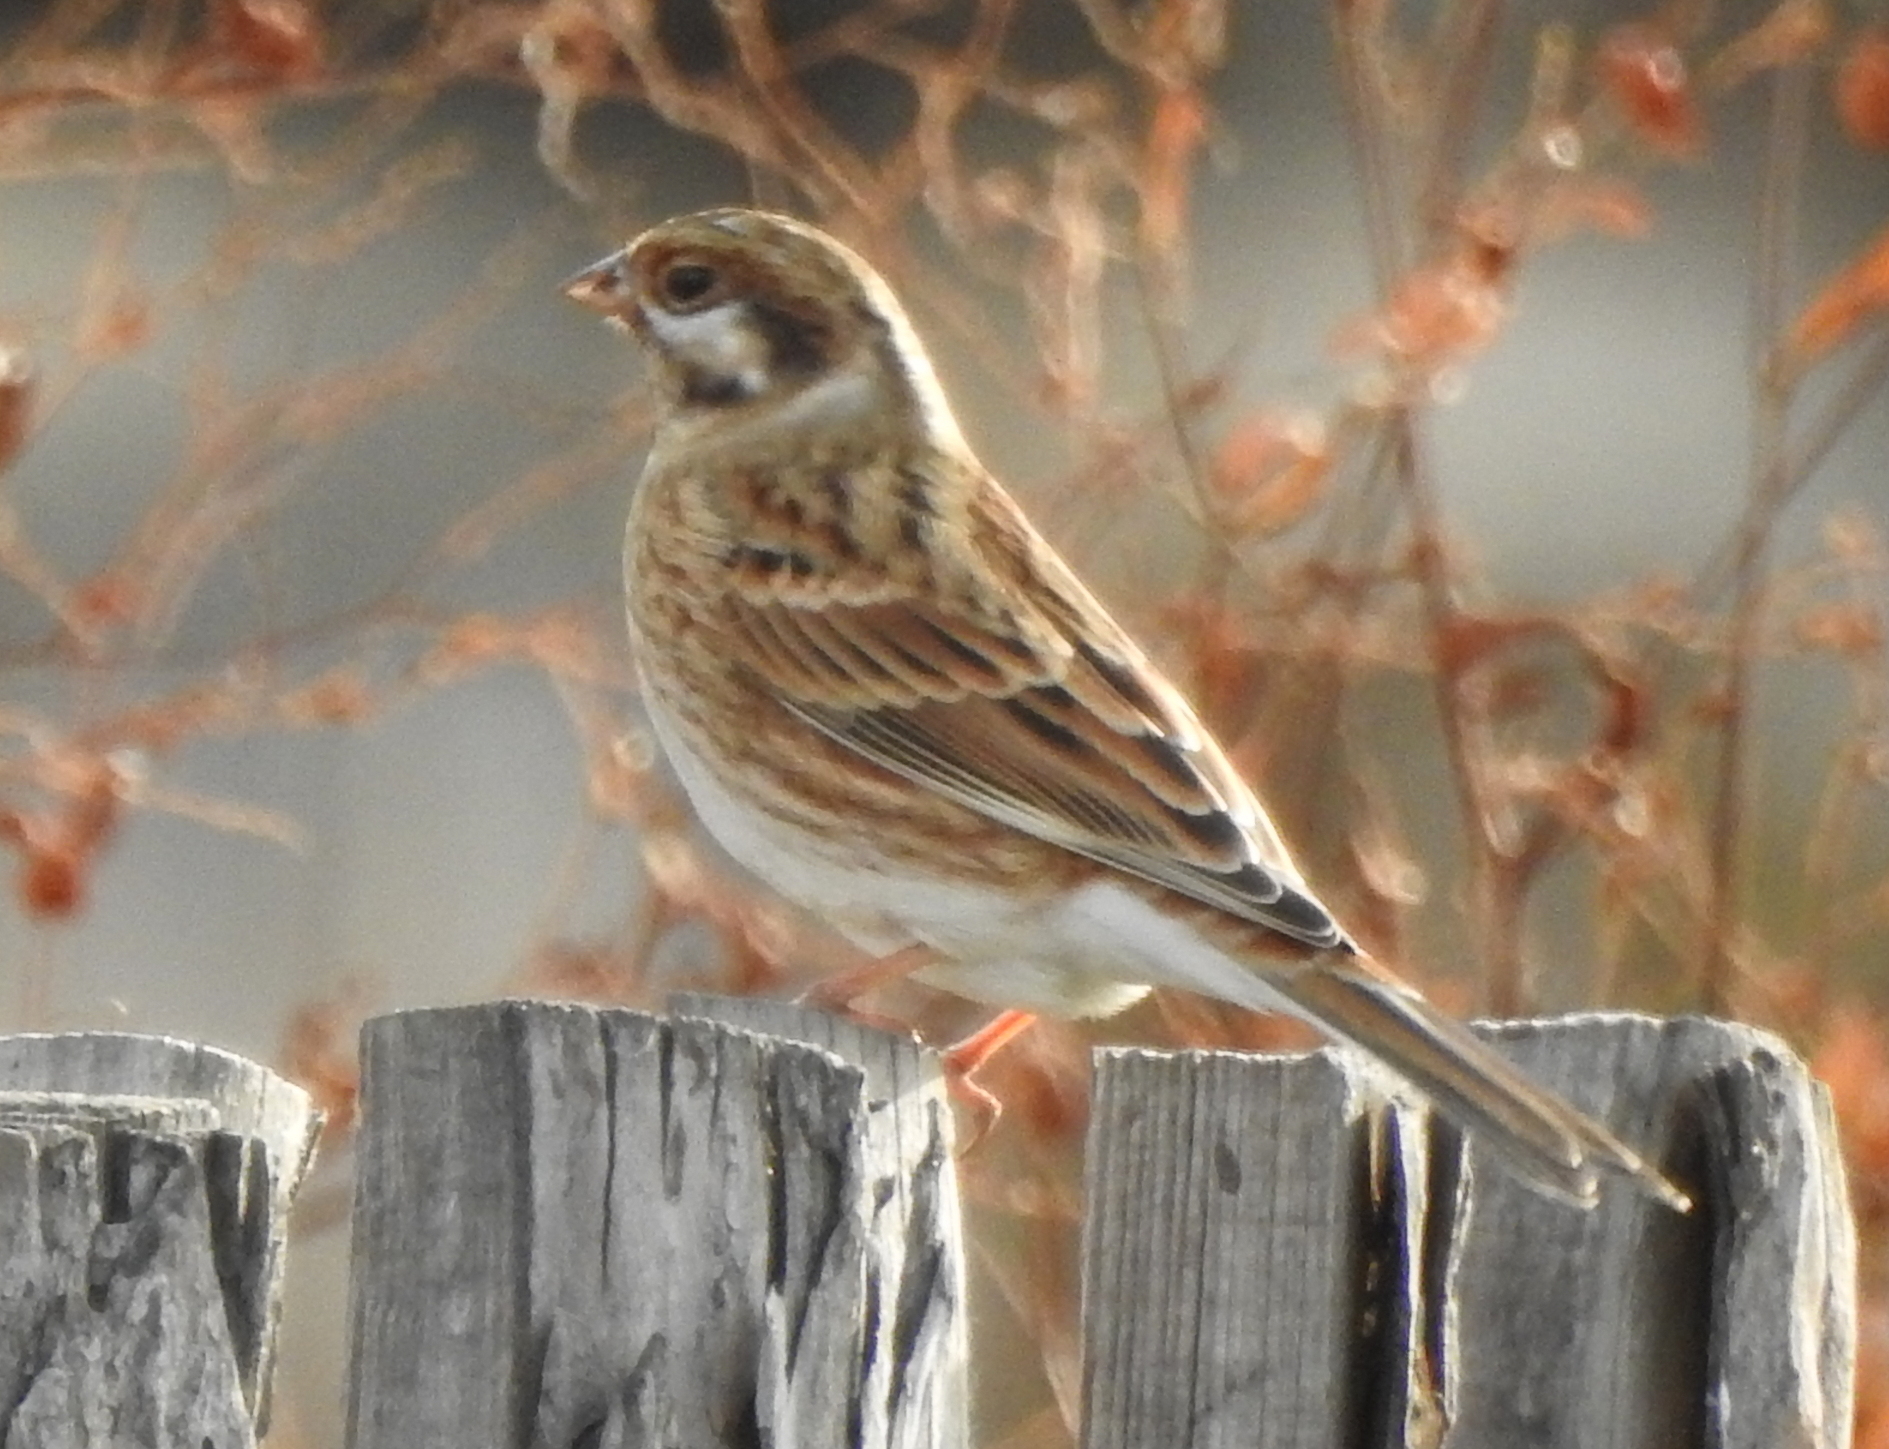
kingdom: Animalia
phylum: Chordata
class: Aves
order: Passeriformes
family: Emberizidae
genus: Emberiza
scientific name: Emberiza leucocephalos
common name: Pine bunting
